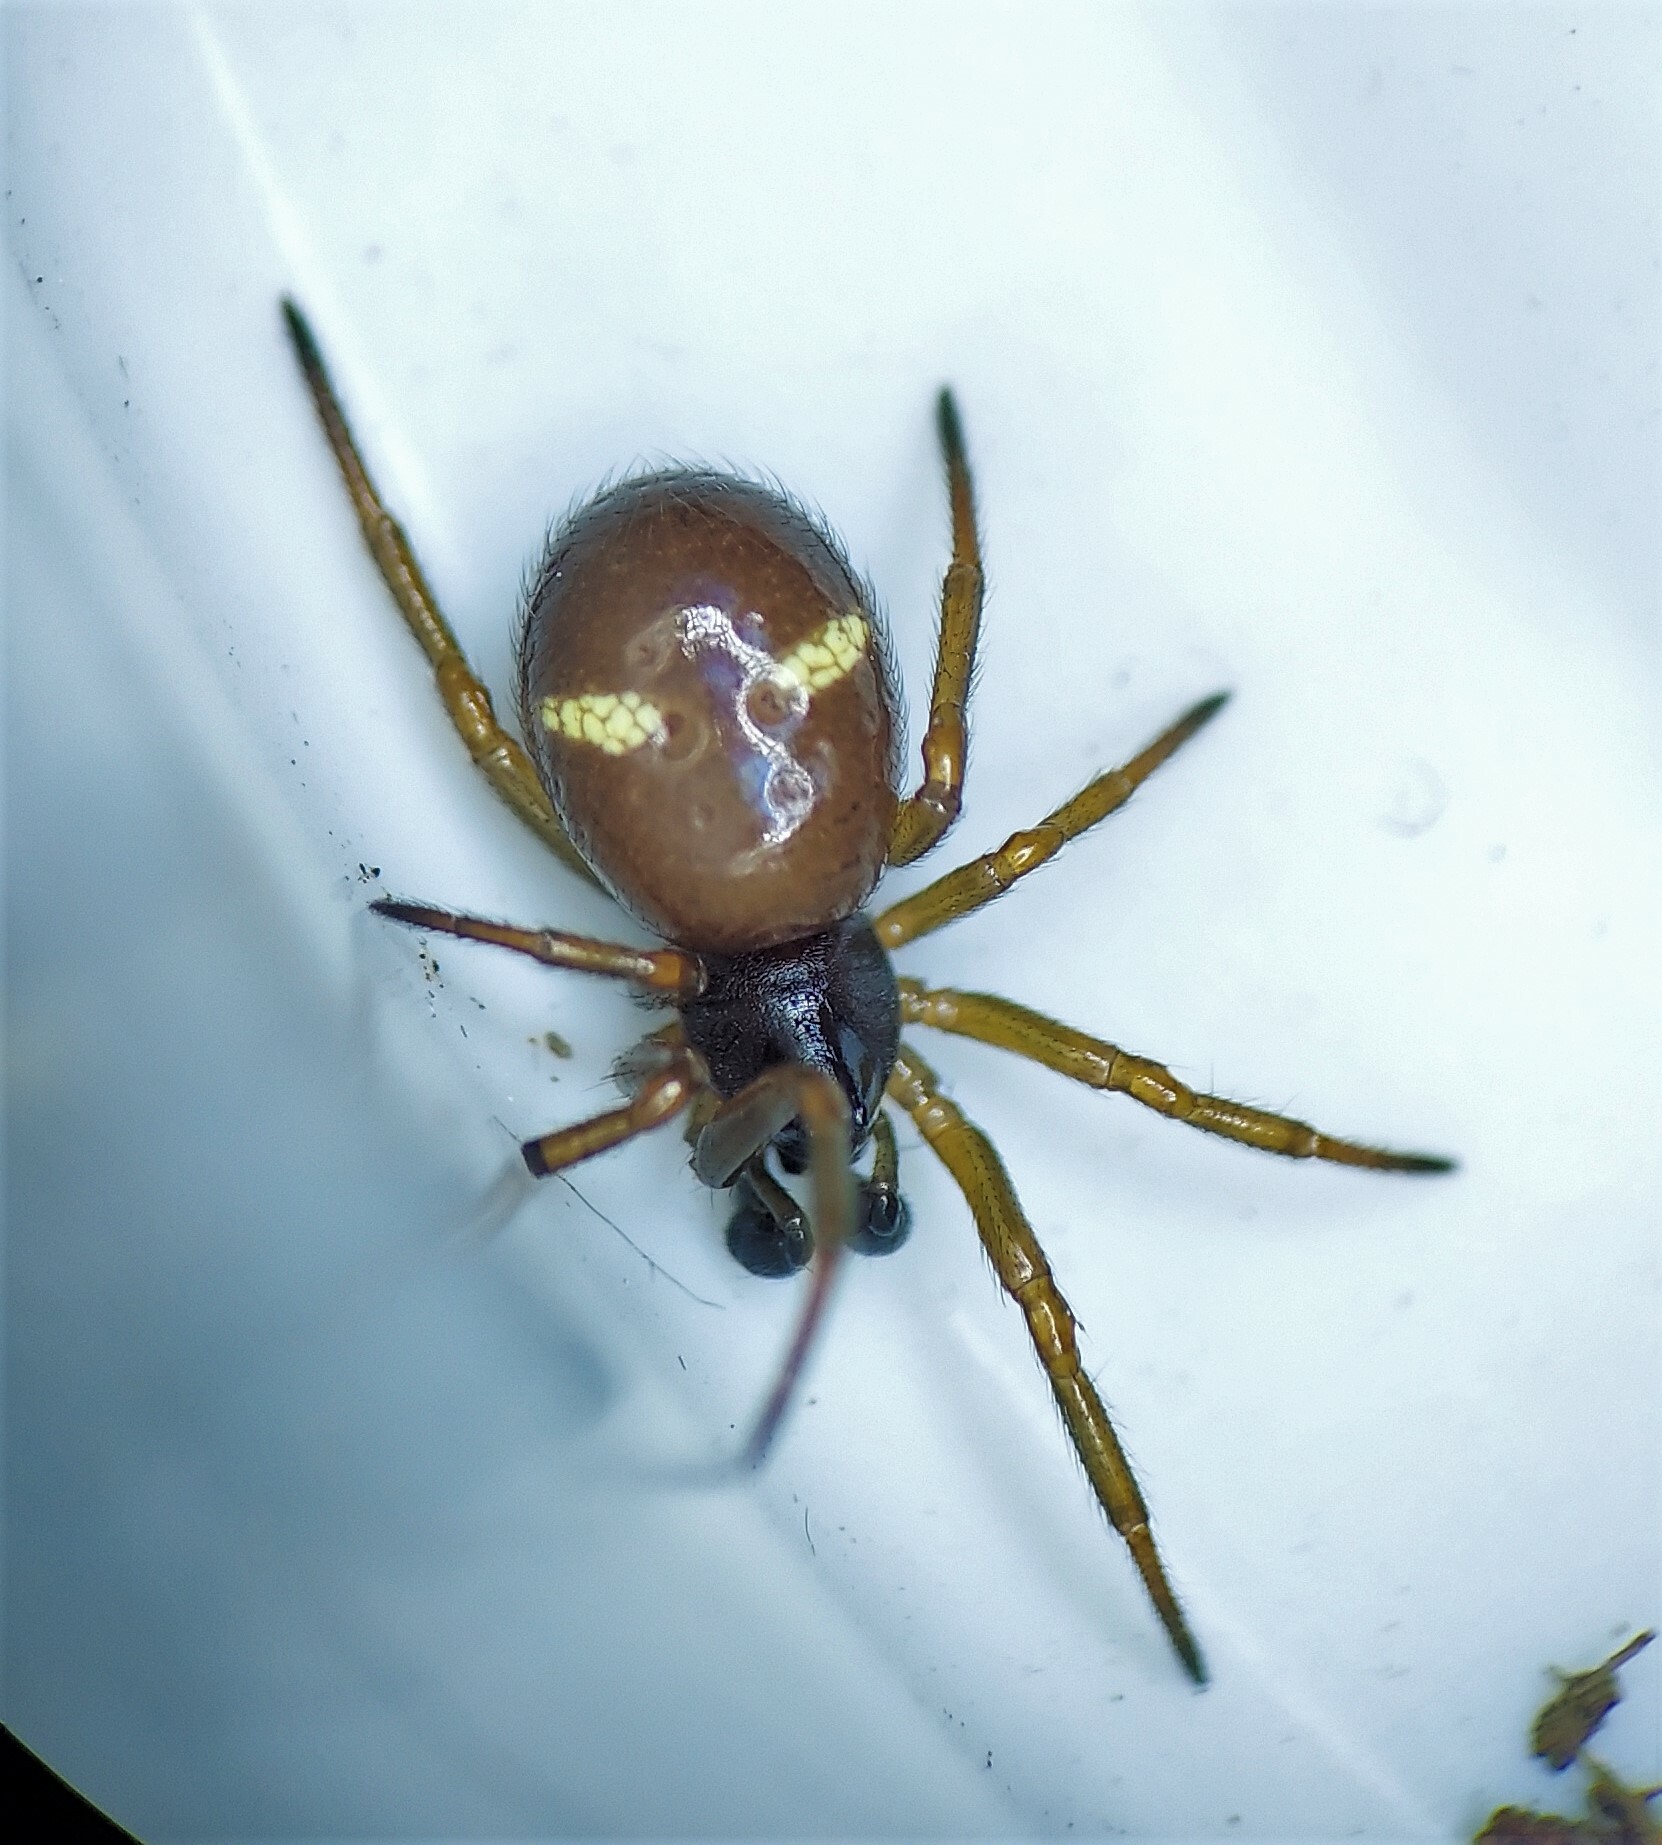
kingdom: Animalia
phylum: Arthropoda
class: Arachnida
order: Araneae
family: Theridiidae
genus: Asagena
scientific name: Asagena americana
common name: Two-spotted cobweb spider
